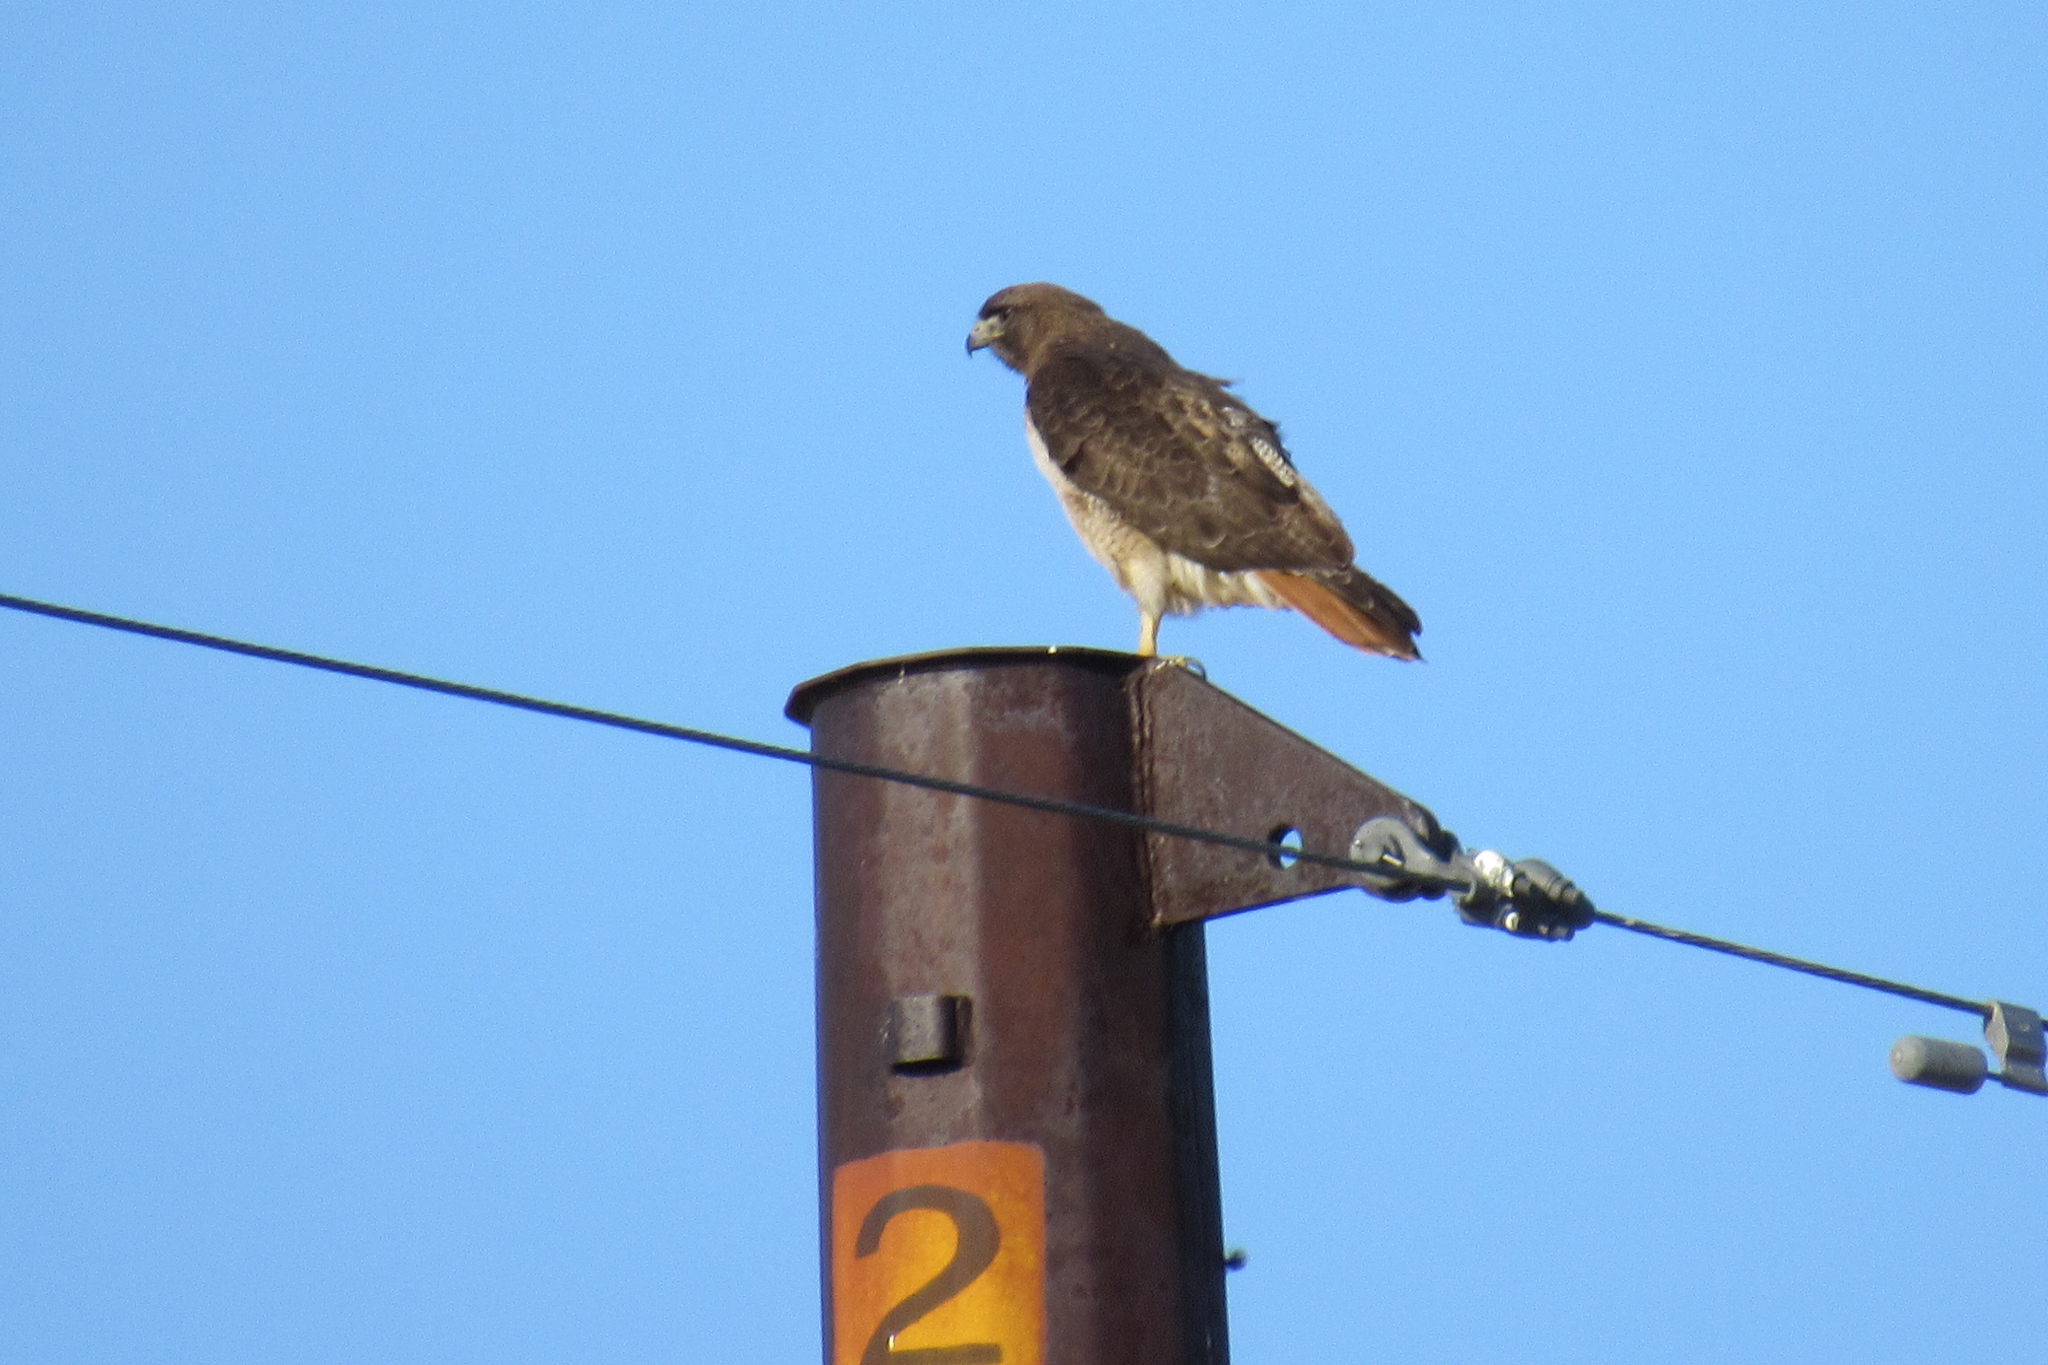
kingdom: Animalia
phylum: Chordata
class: Aves
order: Accipitriformes
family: Accipitridae
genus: Buteo
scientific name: Buteo jamaicensis
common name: Red-tailed hawk
